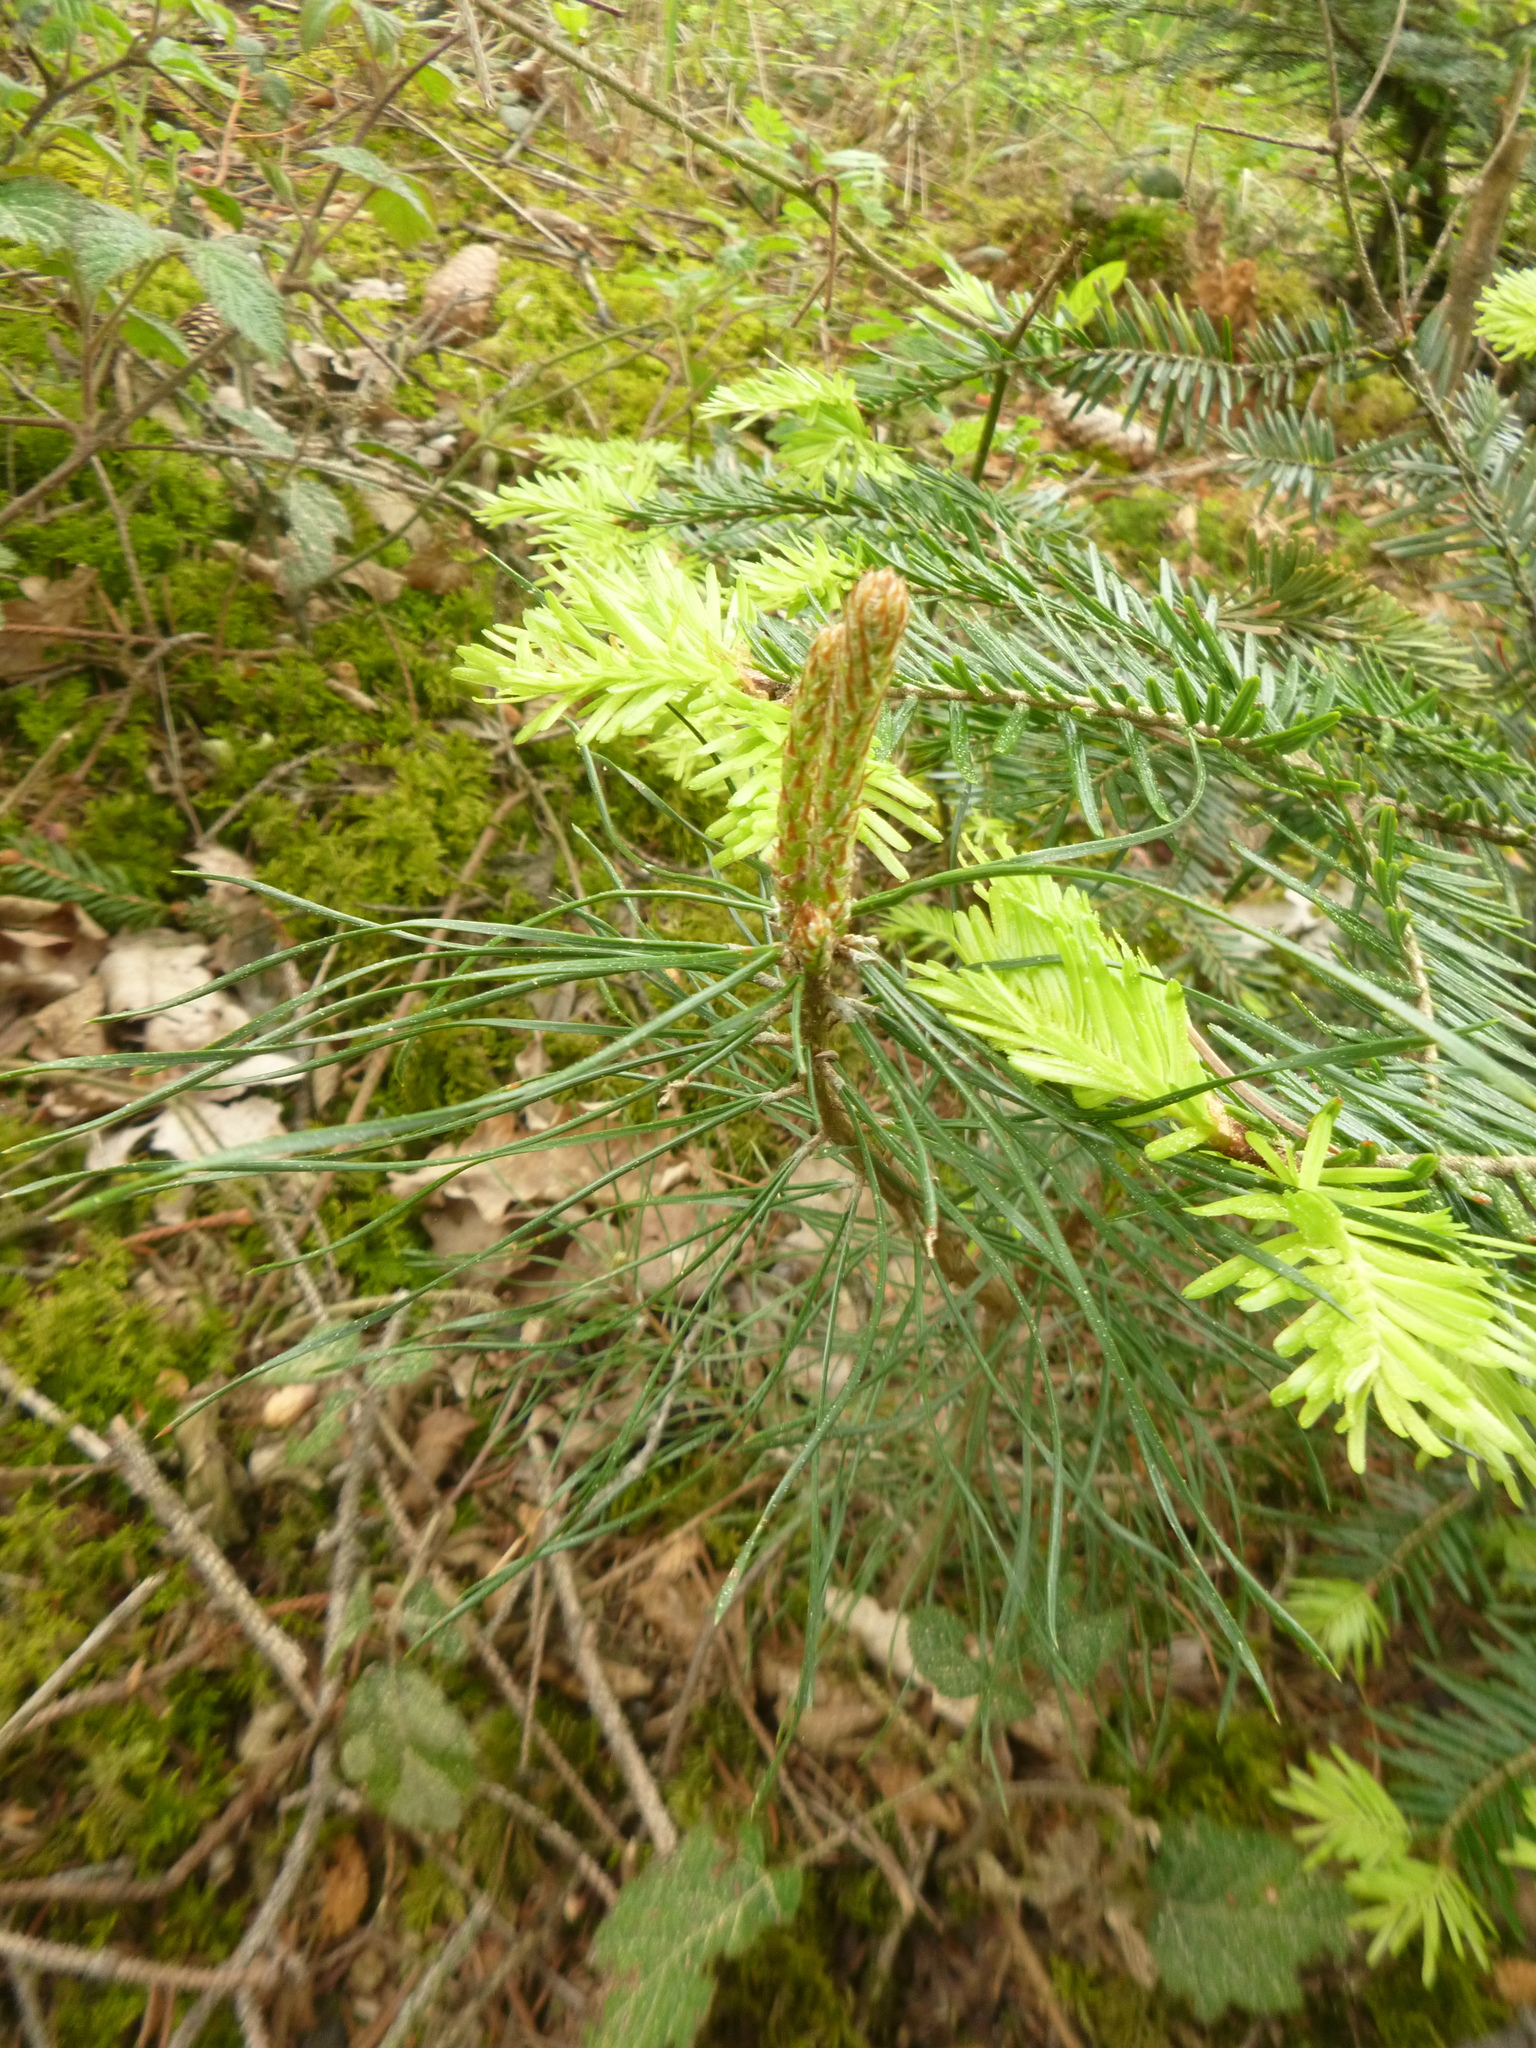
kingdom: Plantae
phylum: Tracheophyta
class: Pinopsida
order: Pinales
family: Pinaceae
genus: Pinus
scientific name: Pinus sylvestris
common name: Scots pine
